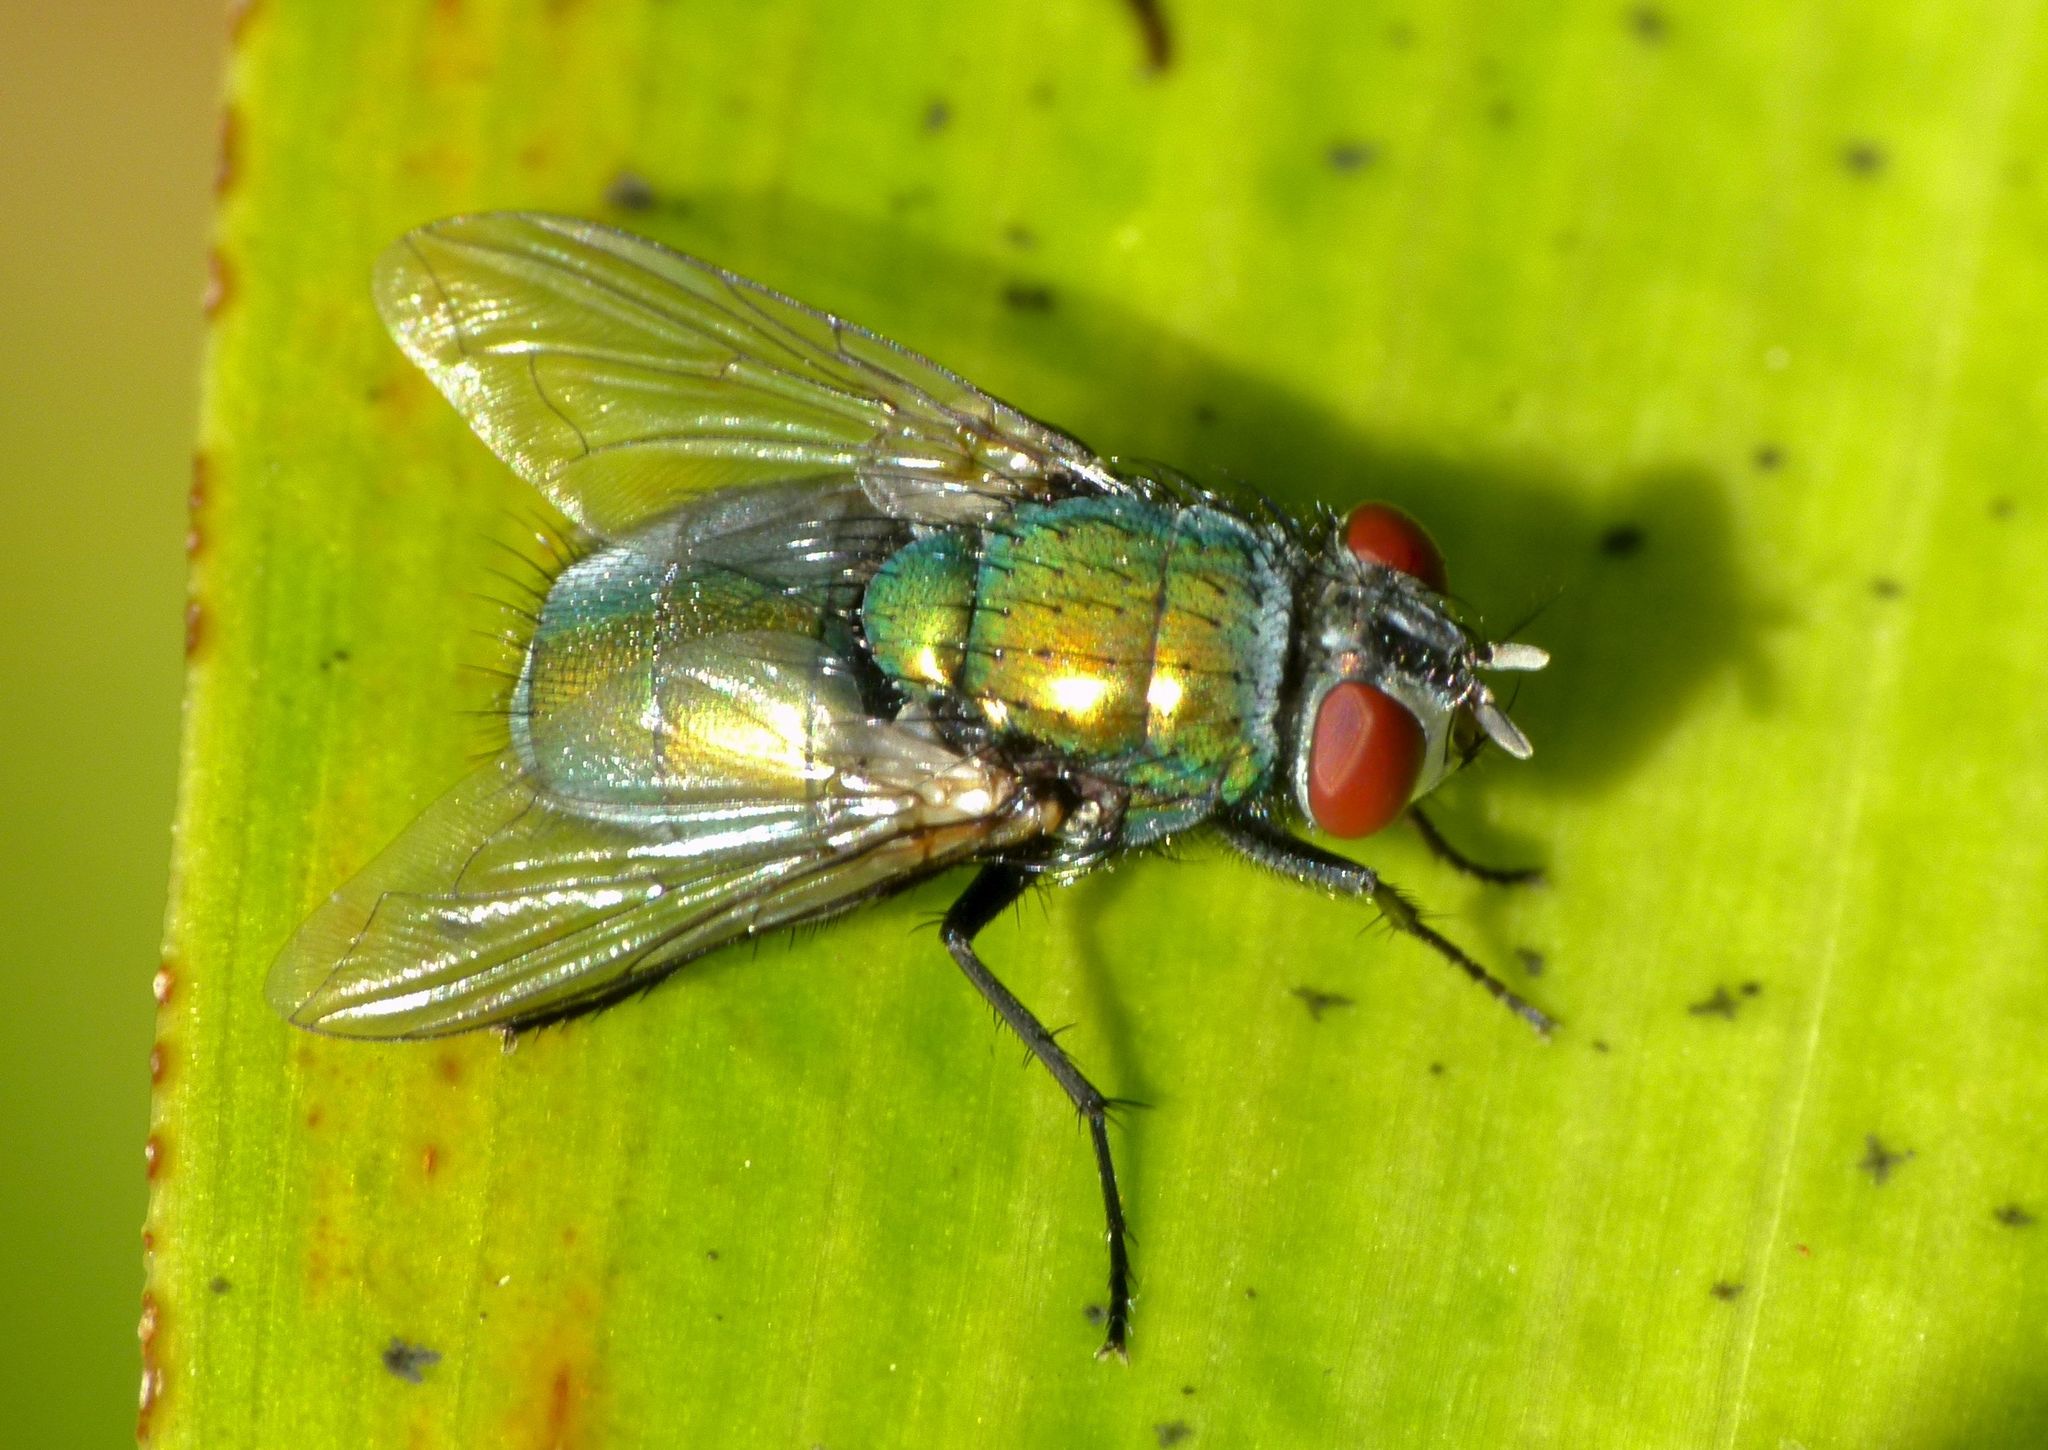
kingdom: Animalia
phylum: Arthropoda
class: Insecta
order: Diptera
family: Calliphoridae
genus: Lucilia
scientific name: Lucilia sericata
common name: Blow fly
